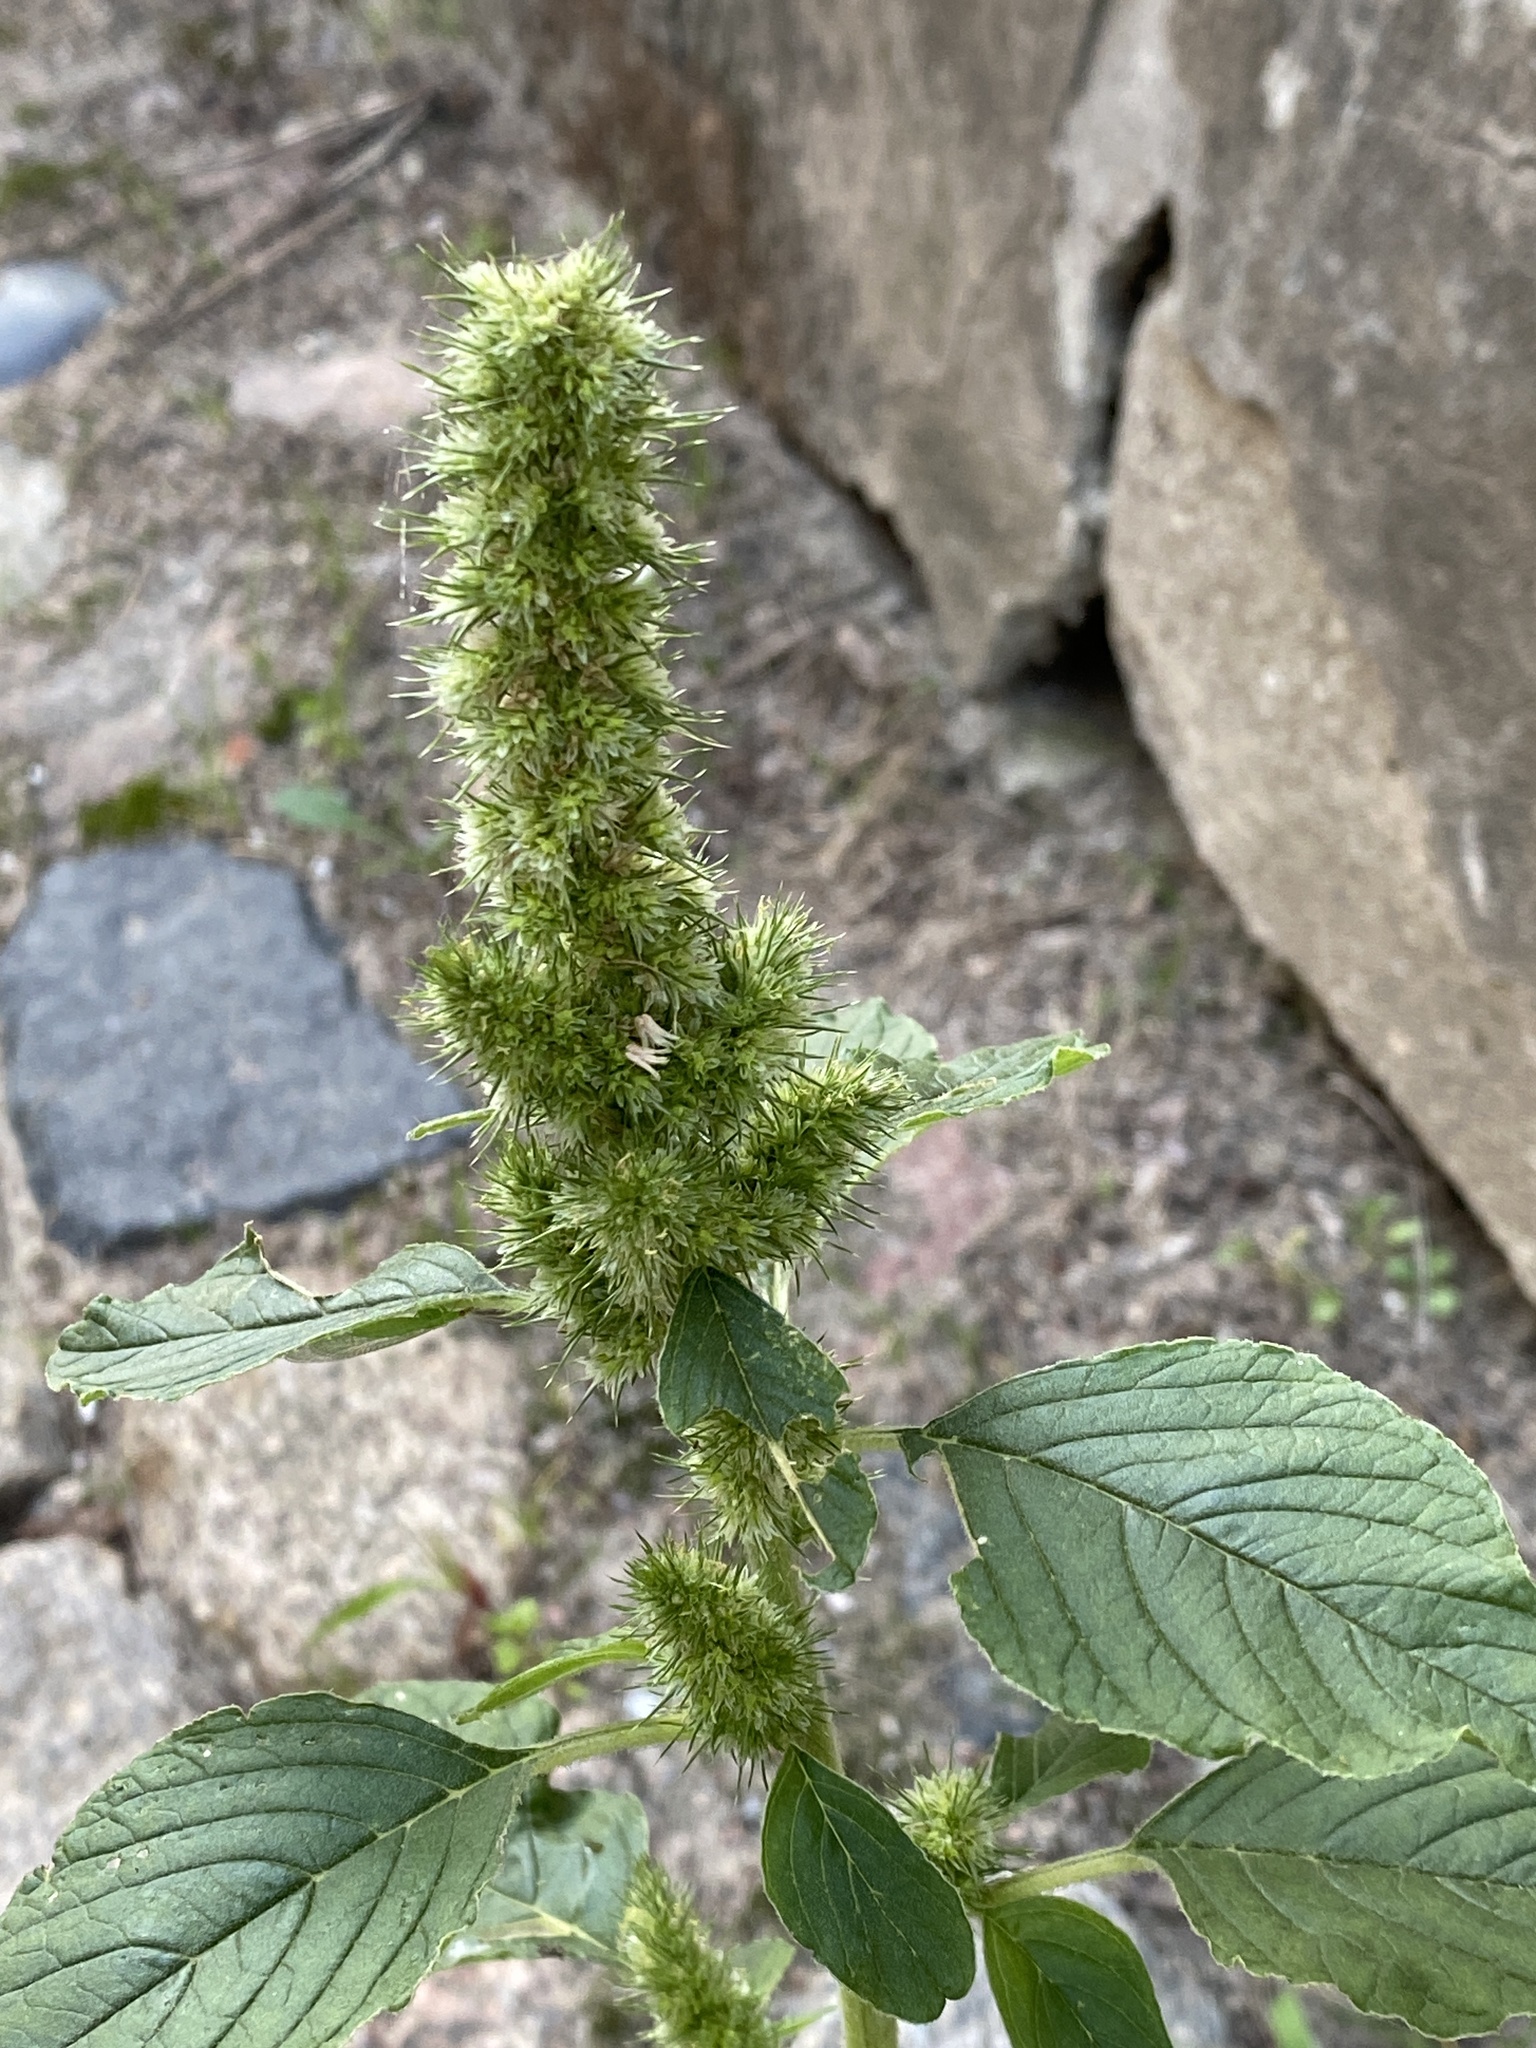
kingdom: Plantae
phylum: Tracheophyta
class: Magnoliopsida
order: Caryophyllales
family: Amaranthaceae
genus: Amaranthus
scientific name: Amaranthus retroflexus
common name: Redroot amaranth
